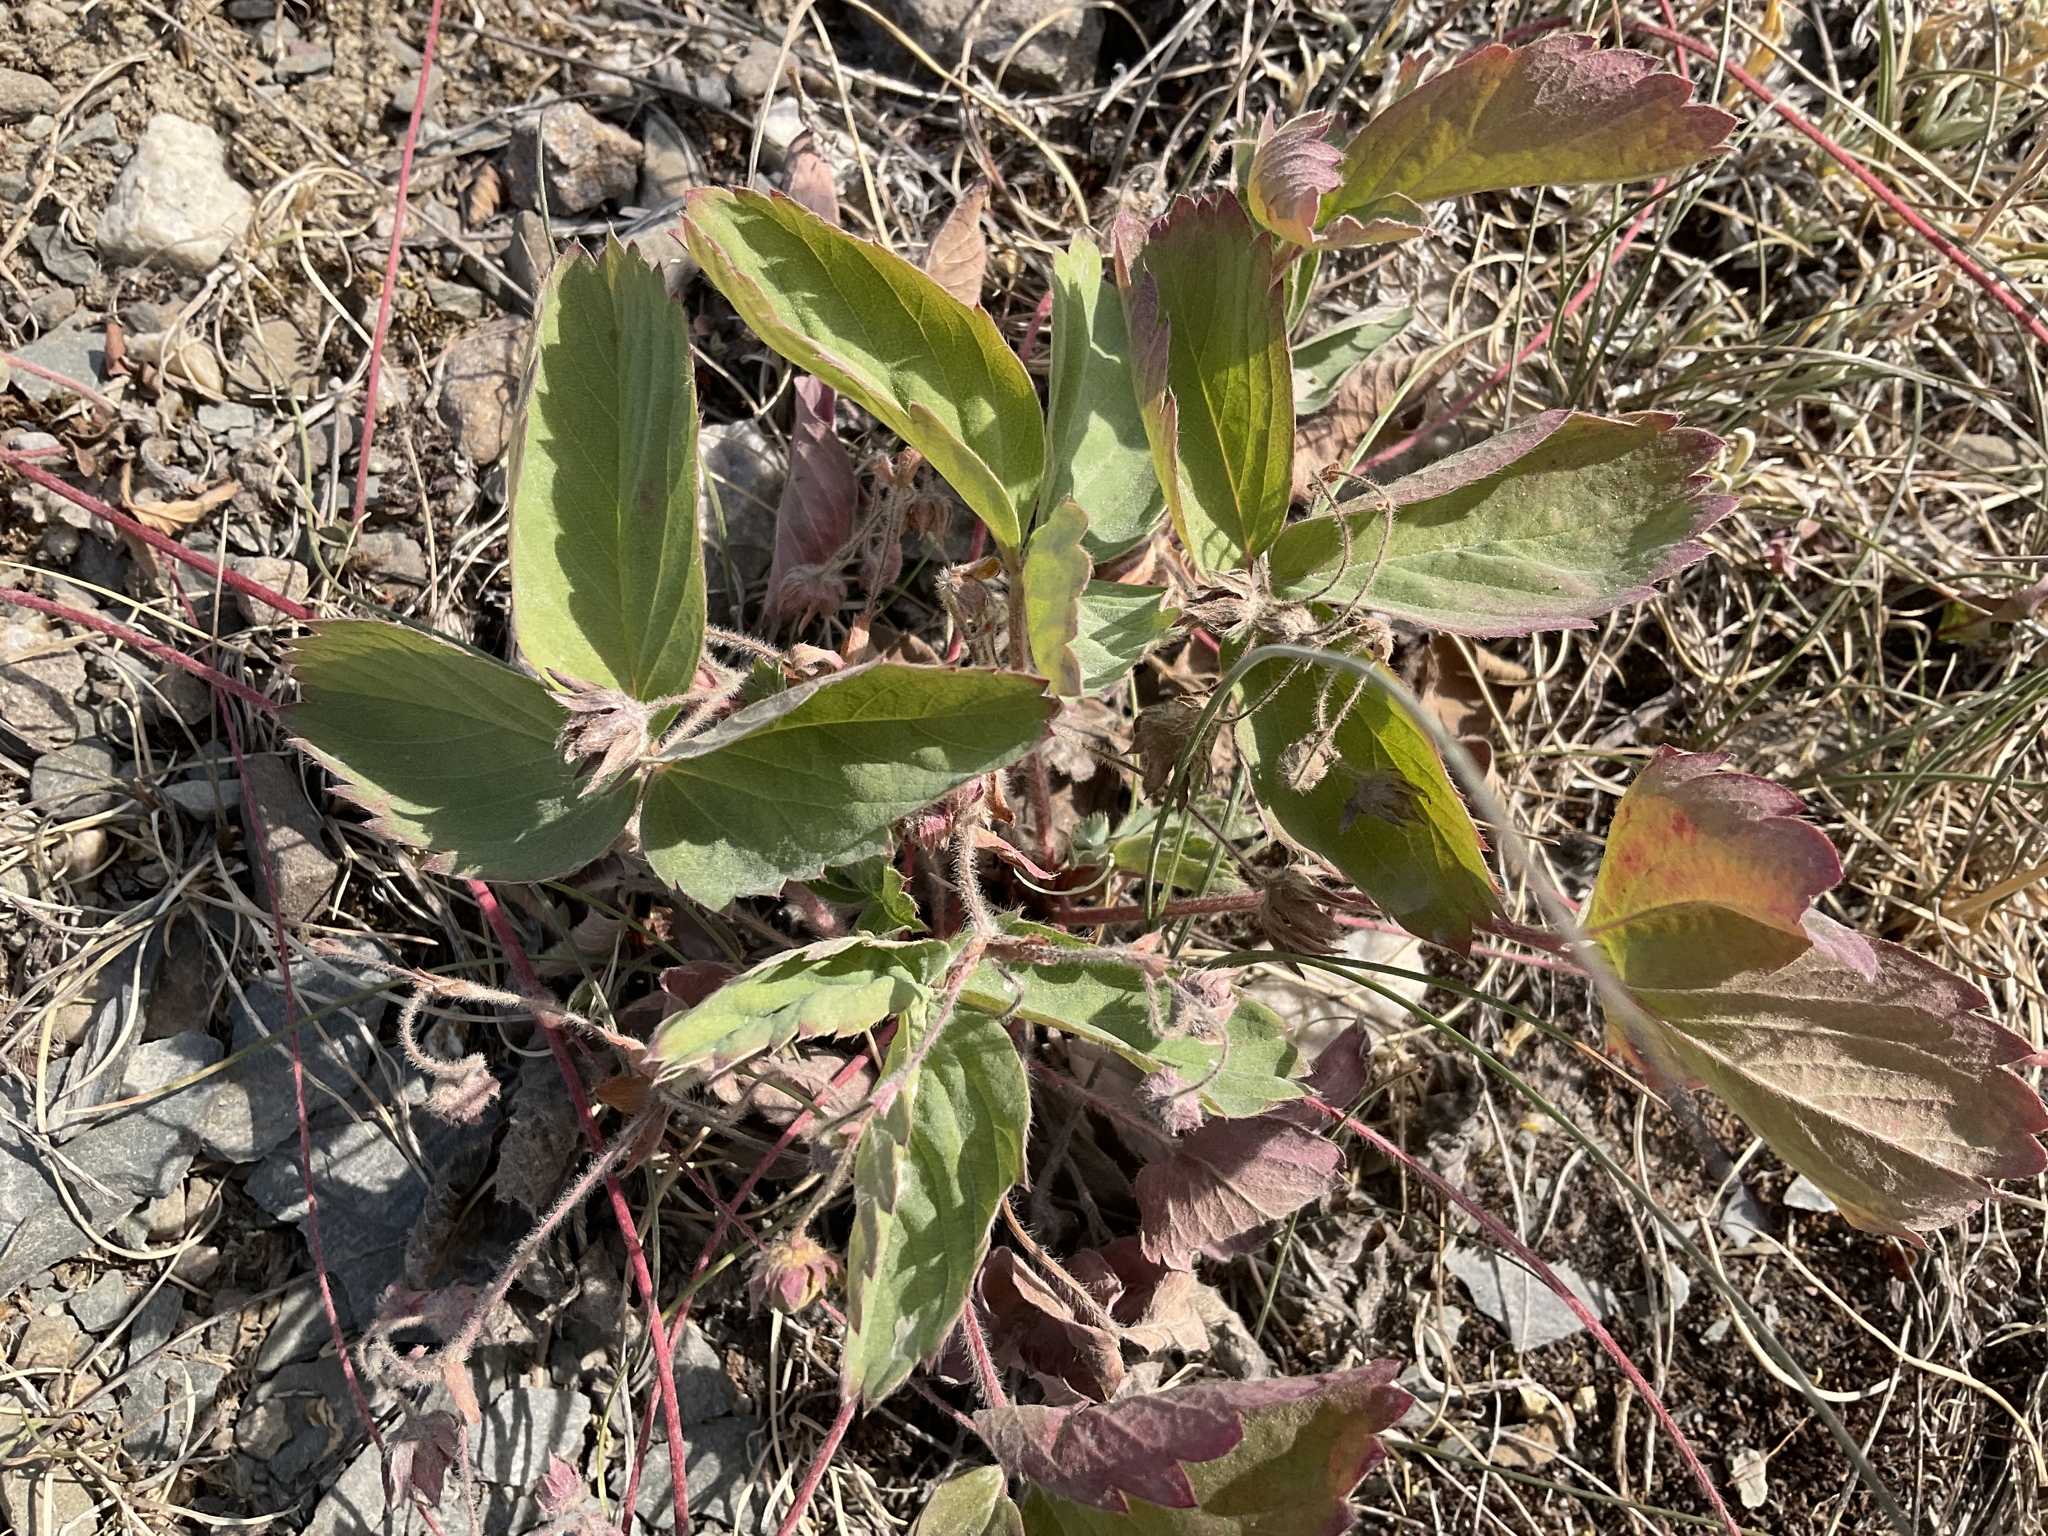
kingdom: Plantae
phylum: Tracheophyta
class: Magnoliopsida
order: Rosales
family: Rosaceae
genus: Fragaria
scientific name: Fragaria virginiana
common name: Thickleaved wild strawberry
